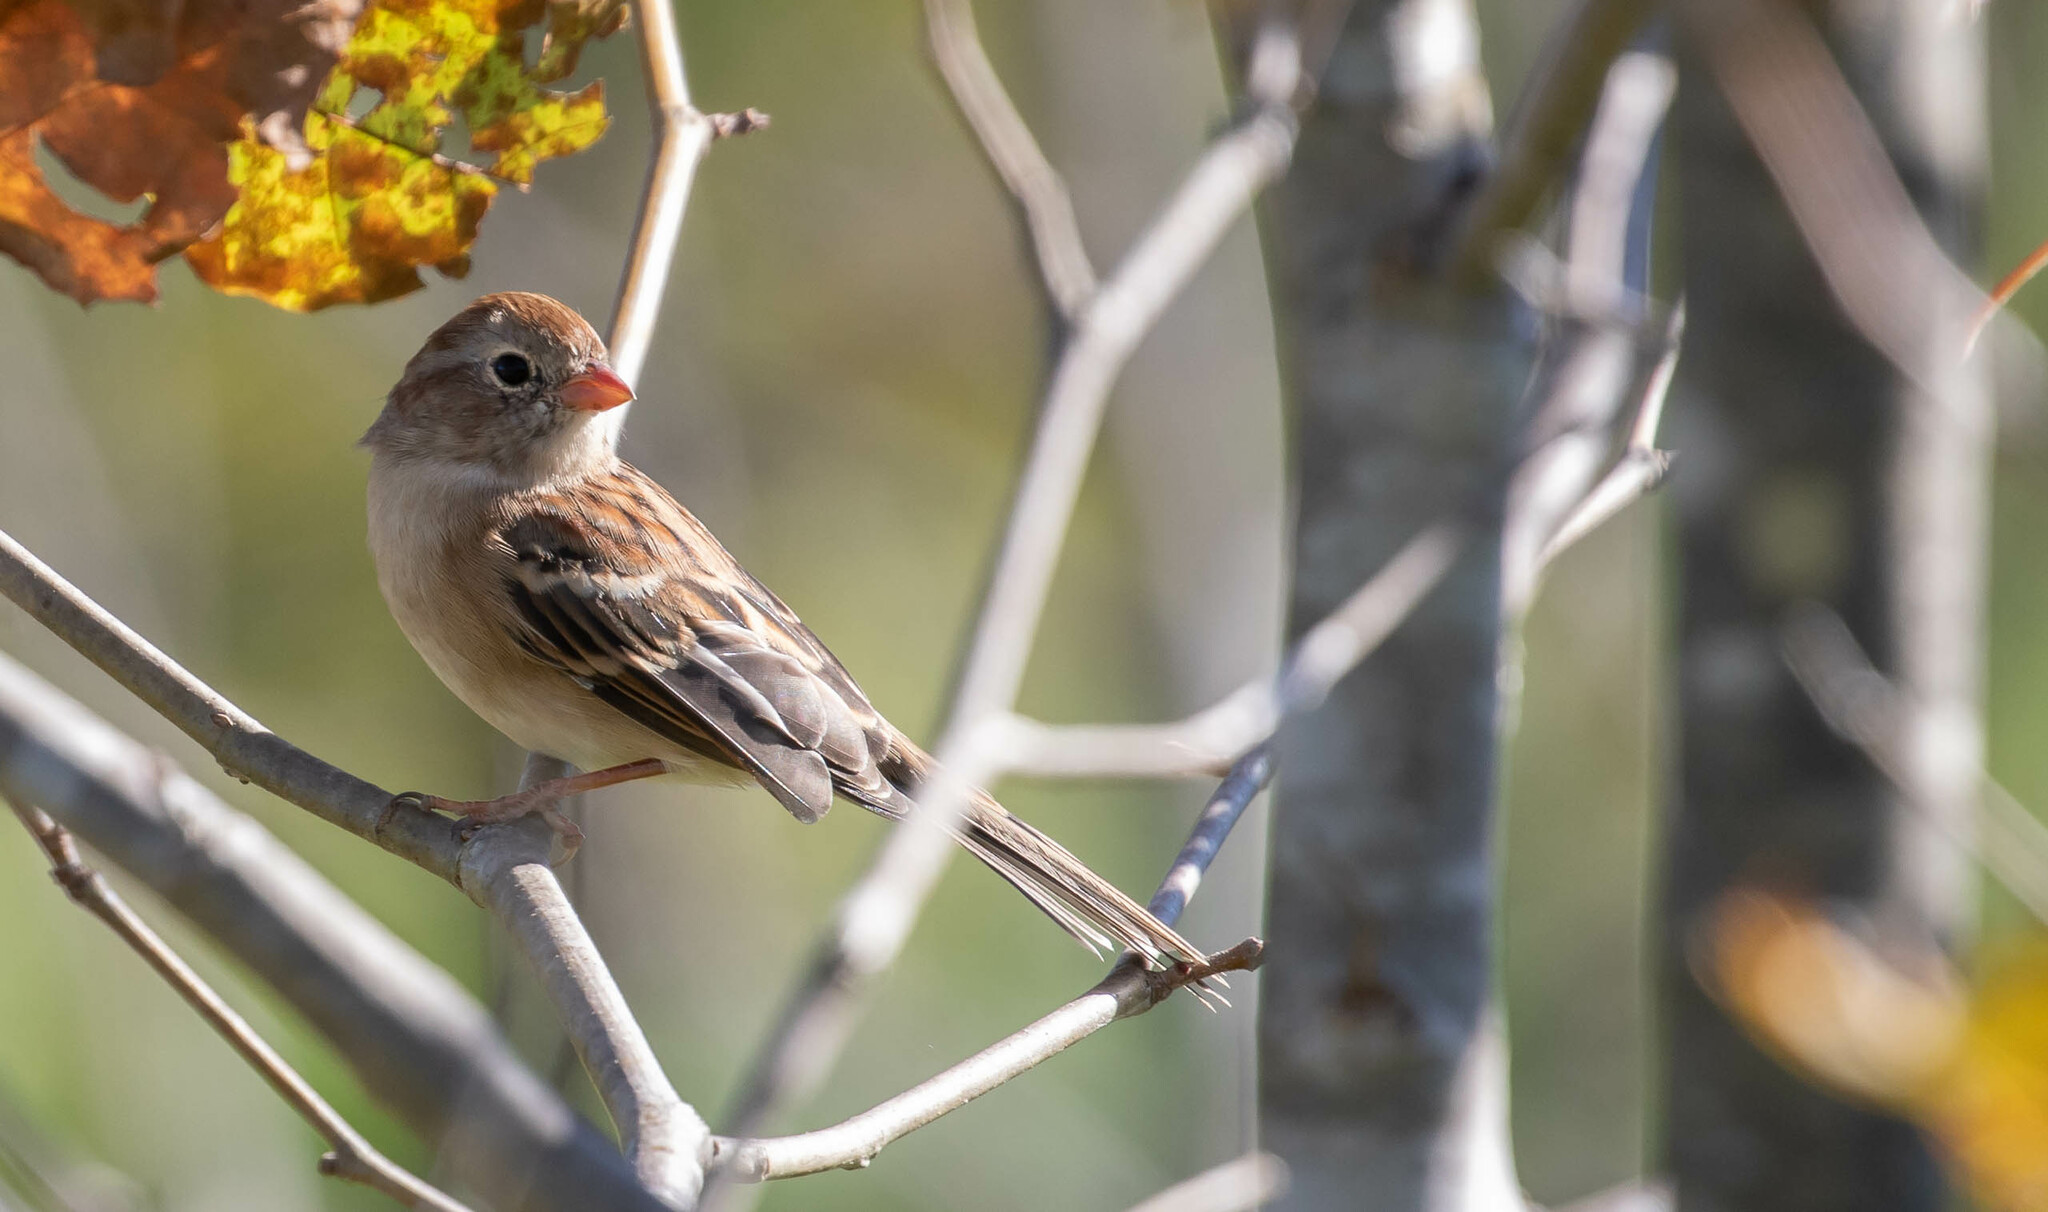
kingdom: Animalia
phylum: Chordata
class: Aves
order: Passeriformes
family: Passerellidae
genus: Spizella
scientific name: Spizella pusilla
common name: Field sparrow
